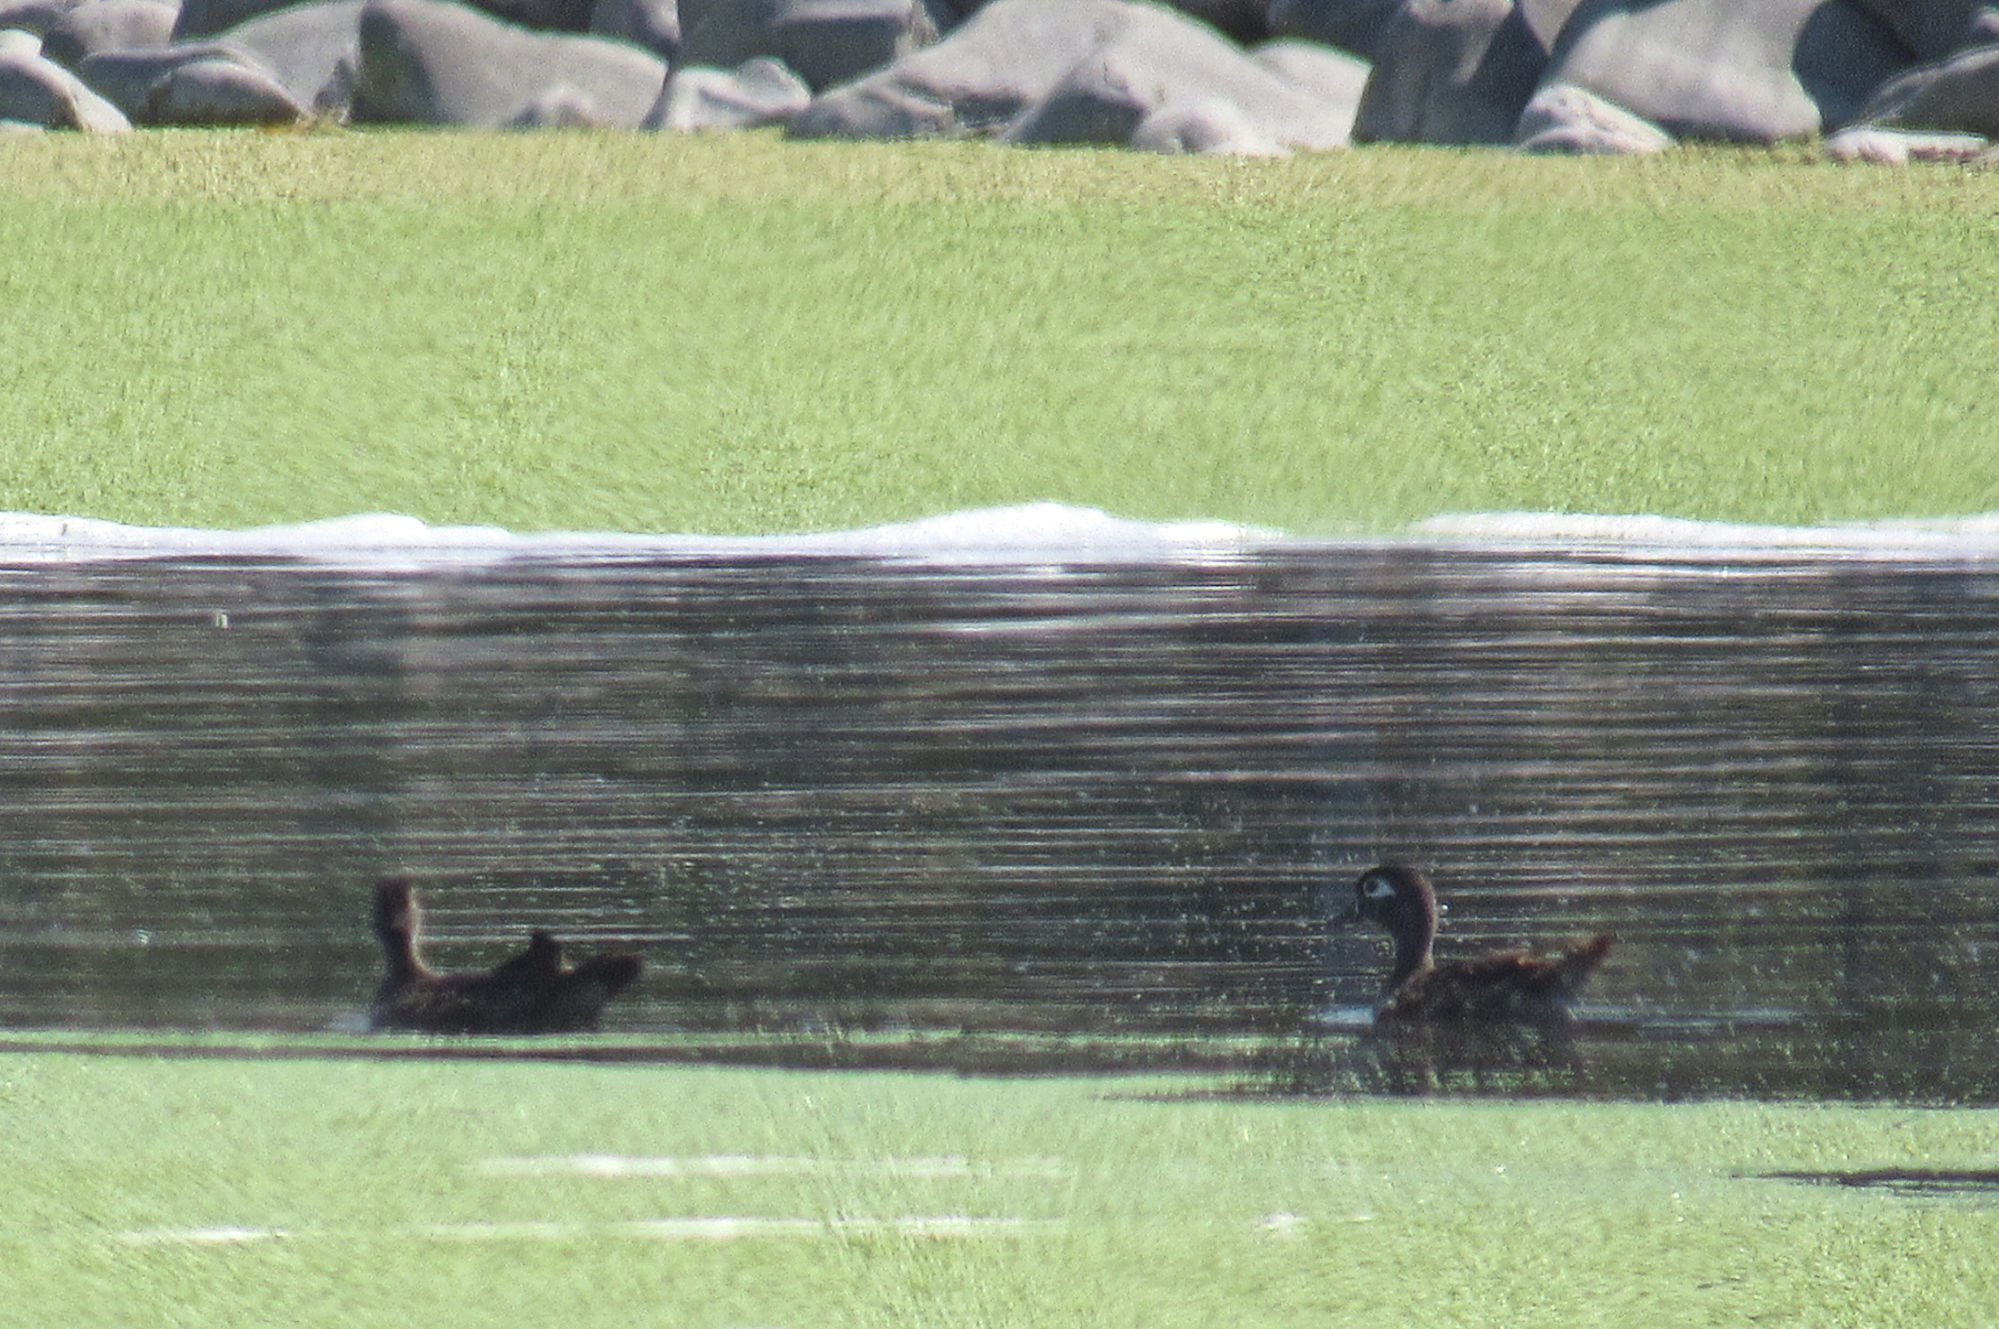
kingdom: Animalia
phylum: Chordata
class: Aves
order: Anseriformes
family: Anatidae
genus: Aix
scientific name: Aix sponsa
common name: Wood duck
